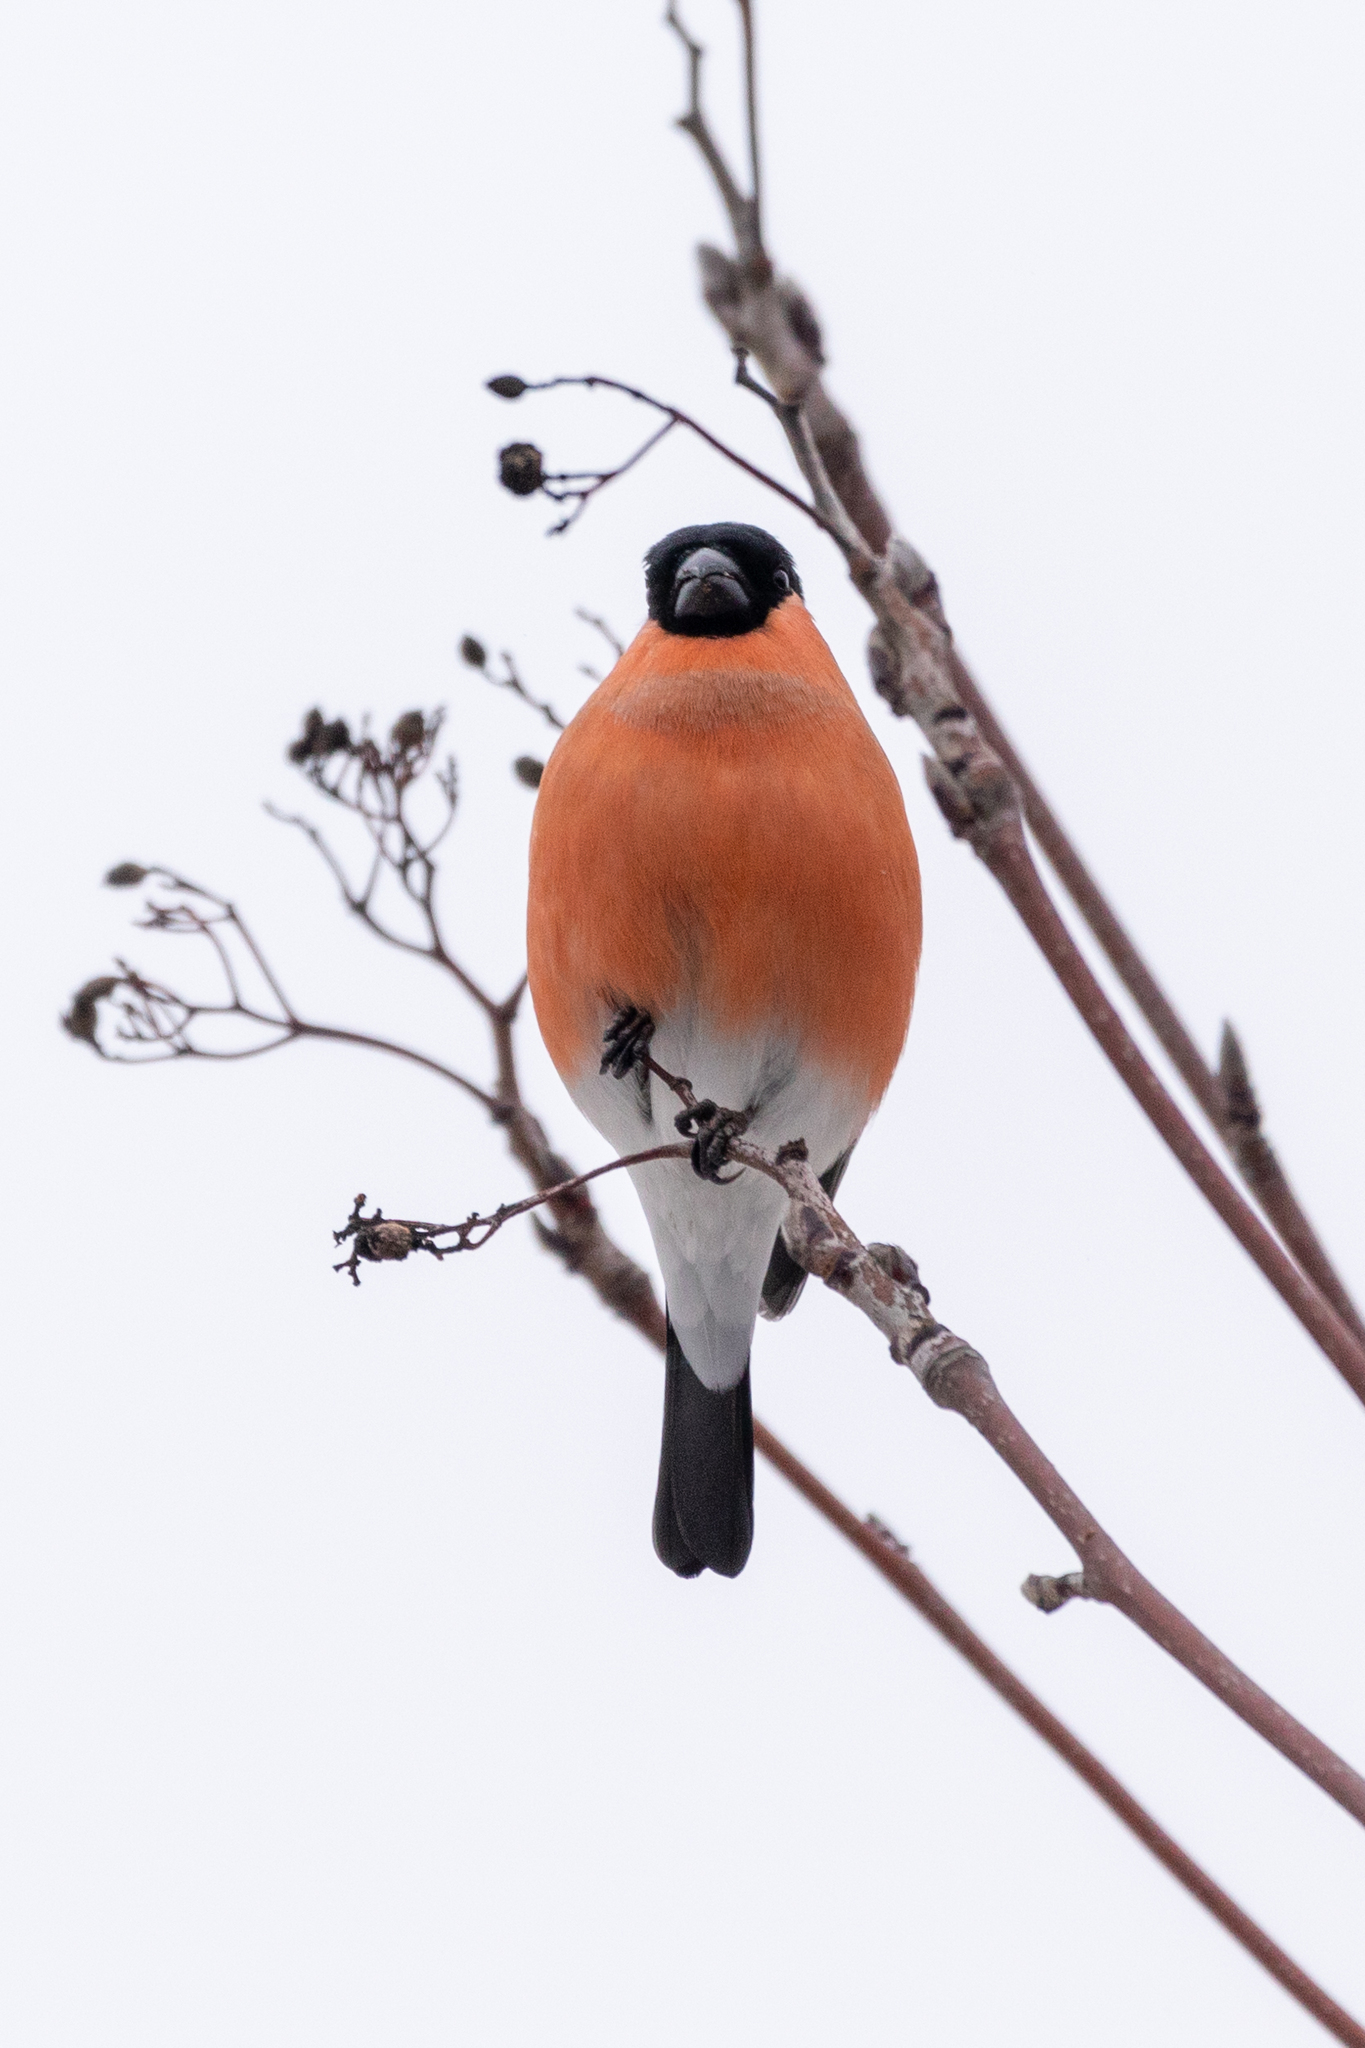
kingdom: Animalia
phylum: Chordata
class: Aves
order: Passeriformes
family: Fringillidae
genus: Pyrrhula
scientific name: Pyrrhula pyrrhula
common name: Eurasian bullfinch
